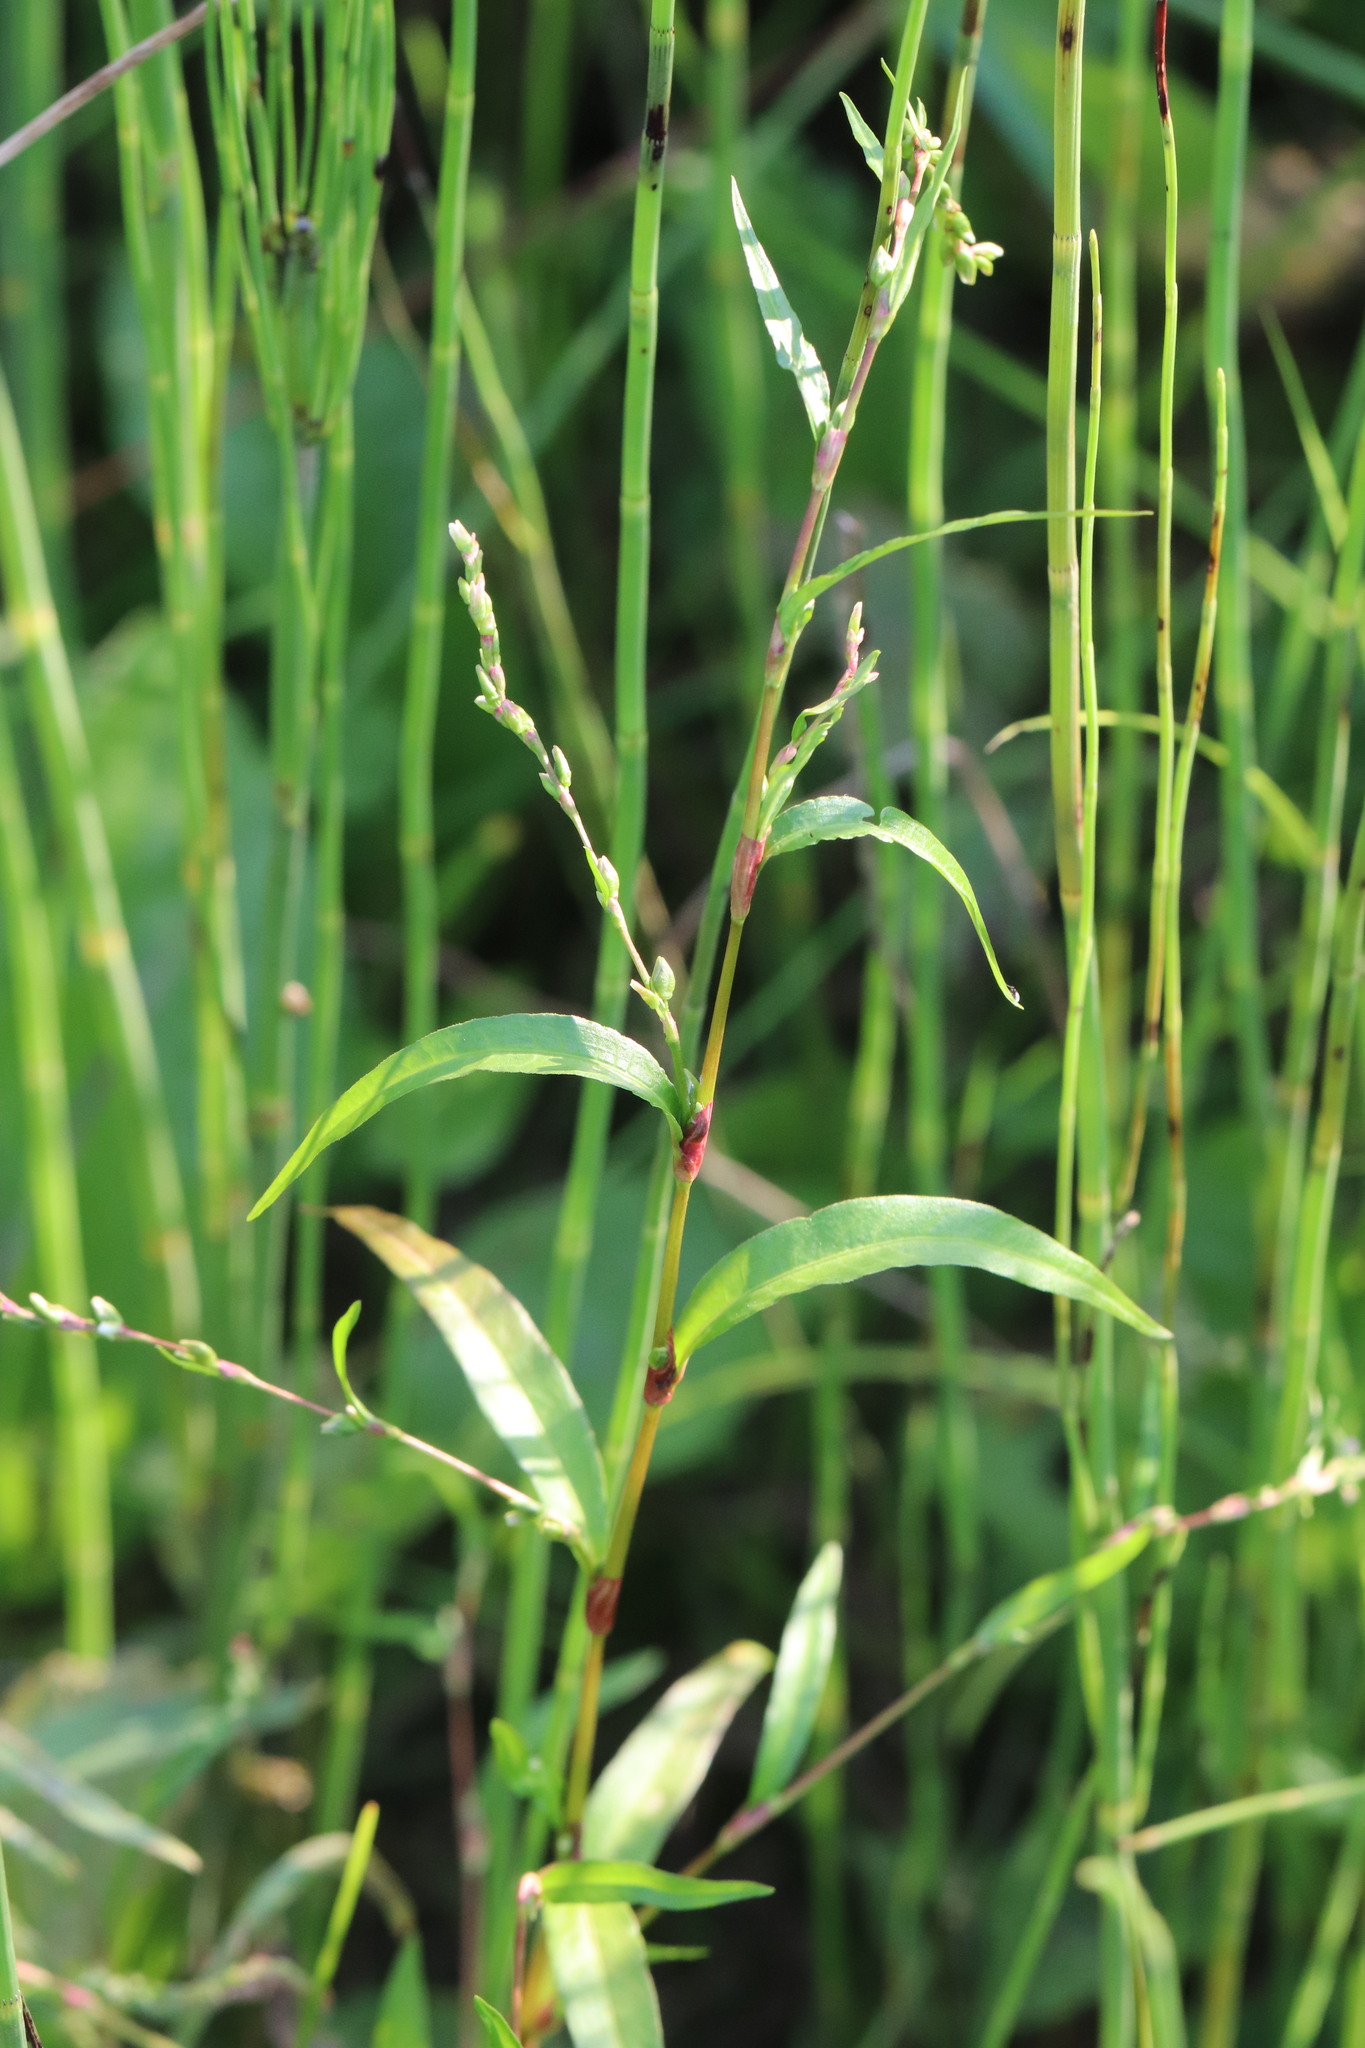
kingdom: Plantae
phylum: Tracheophyta
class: Magnoliopsida
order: Caryophyllales
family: Polygonaceae
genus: Persicaria
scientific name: Persicaria hydropiper
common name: Water-pepper
